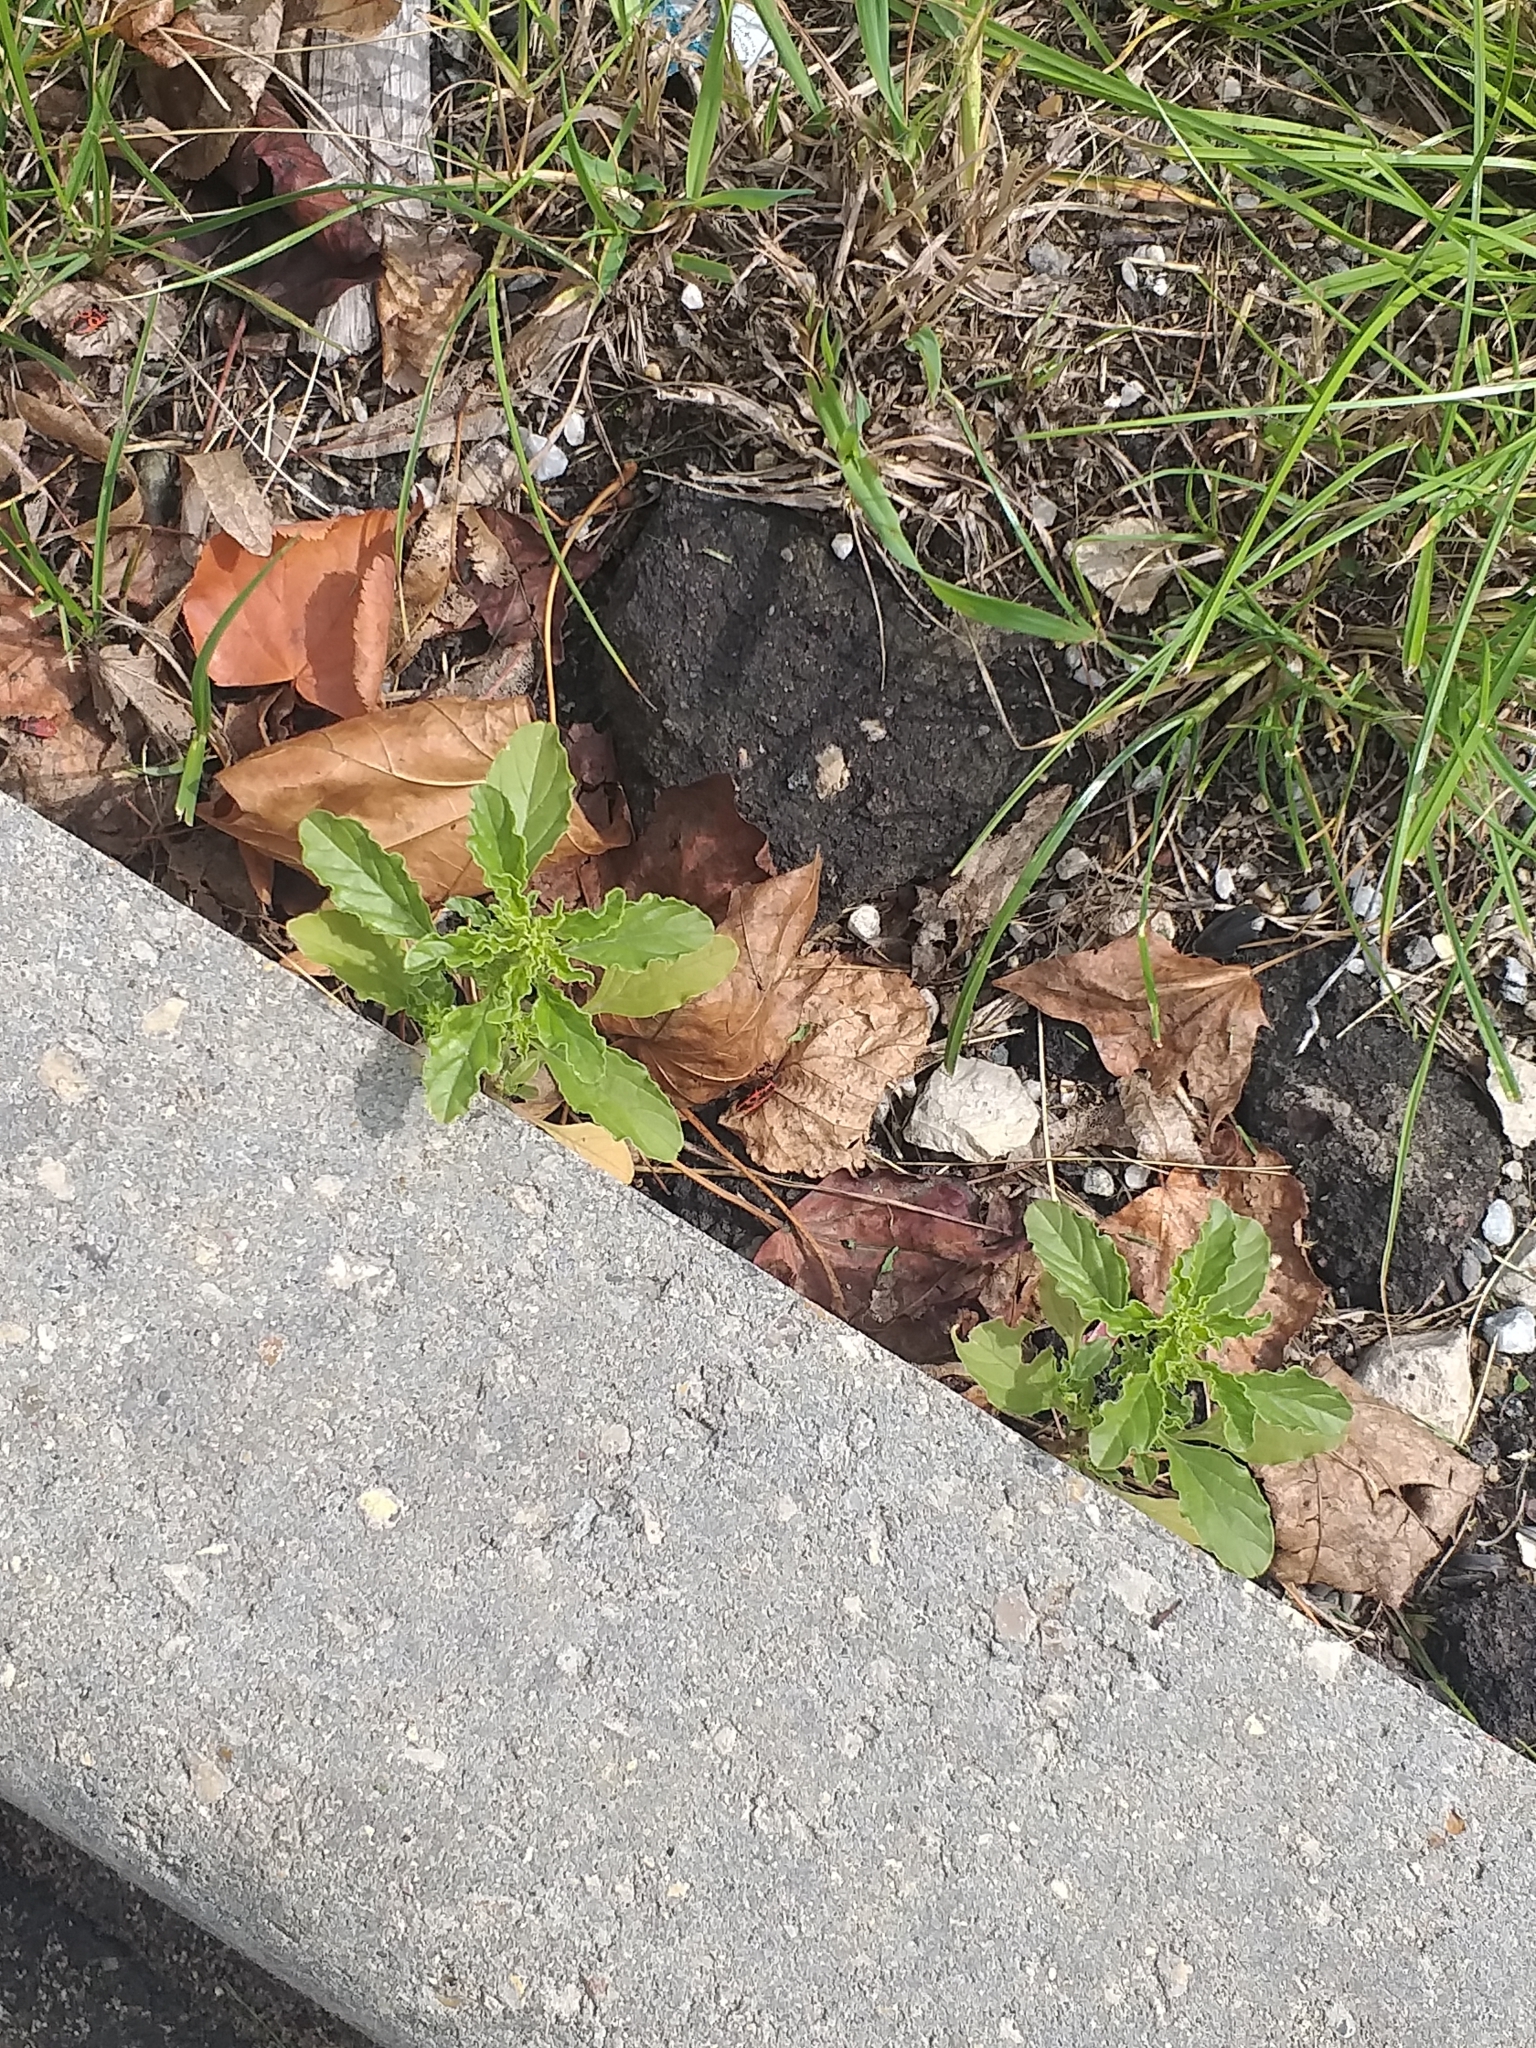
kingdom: Plantae
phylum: Tracheophyta
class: Magnoliopsida
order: Caryophyllales
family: Amaranthaceae
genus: Amaranthus
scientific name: Amaranthus albus
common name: White pigweed
